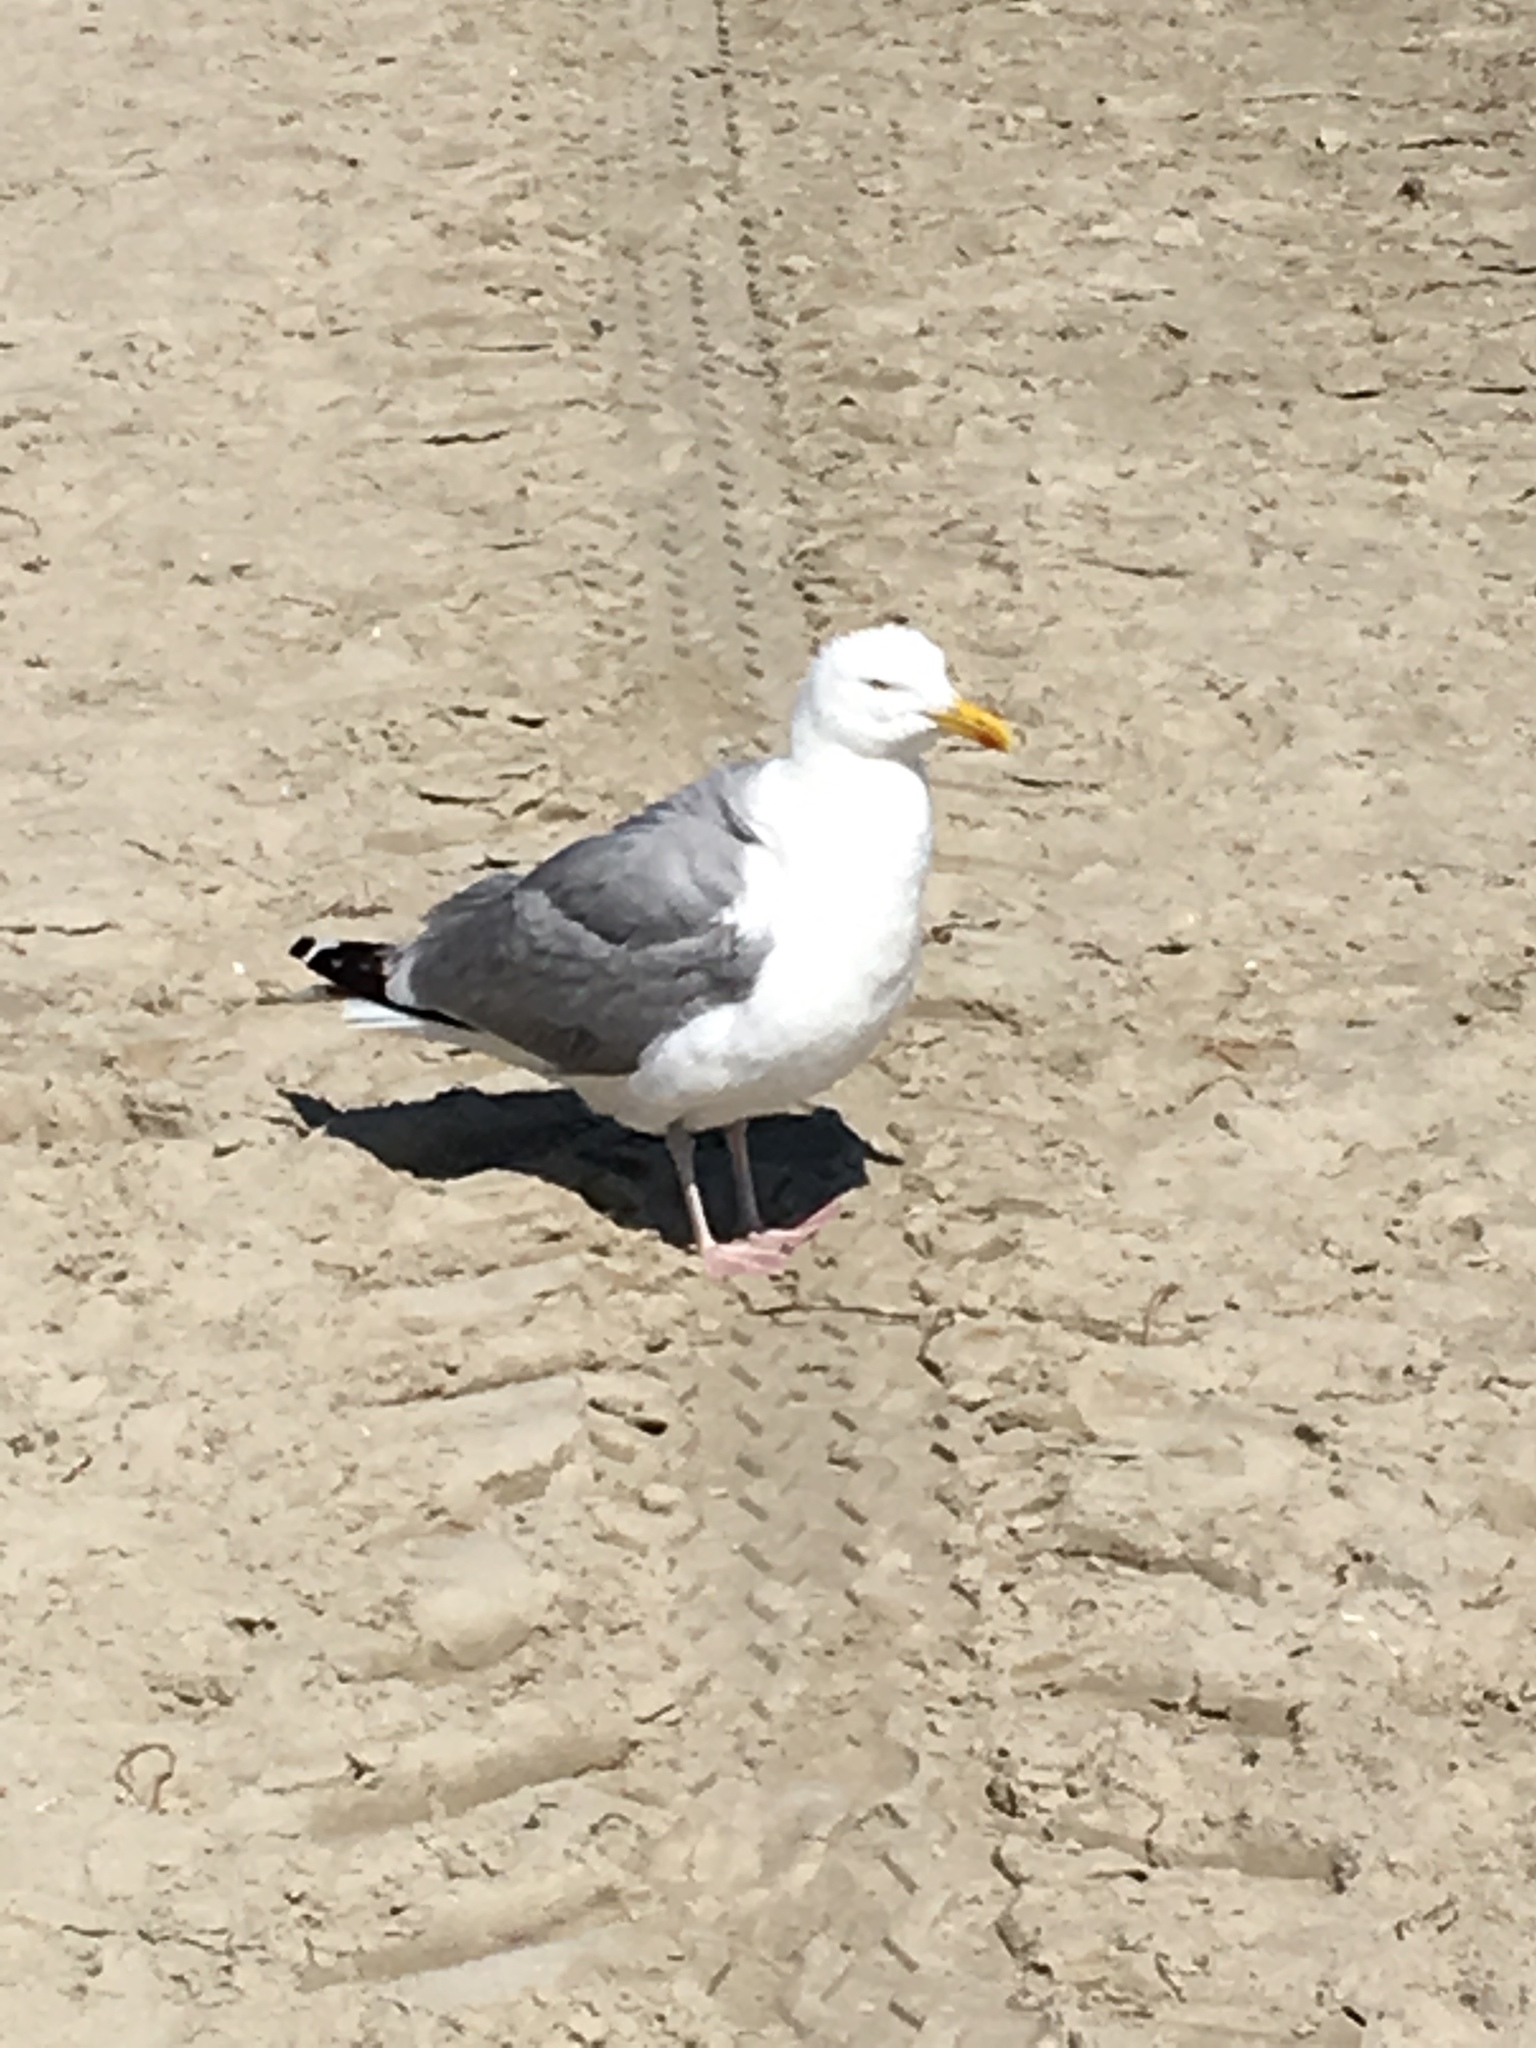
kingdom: Animalia
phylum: Chordata
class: Aves
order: Charadriiformes
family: Laridae
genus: Larus
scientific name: Larus argentatus
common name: Herring gull
